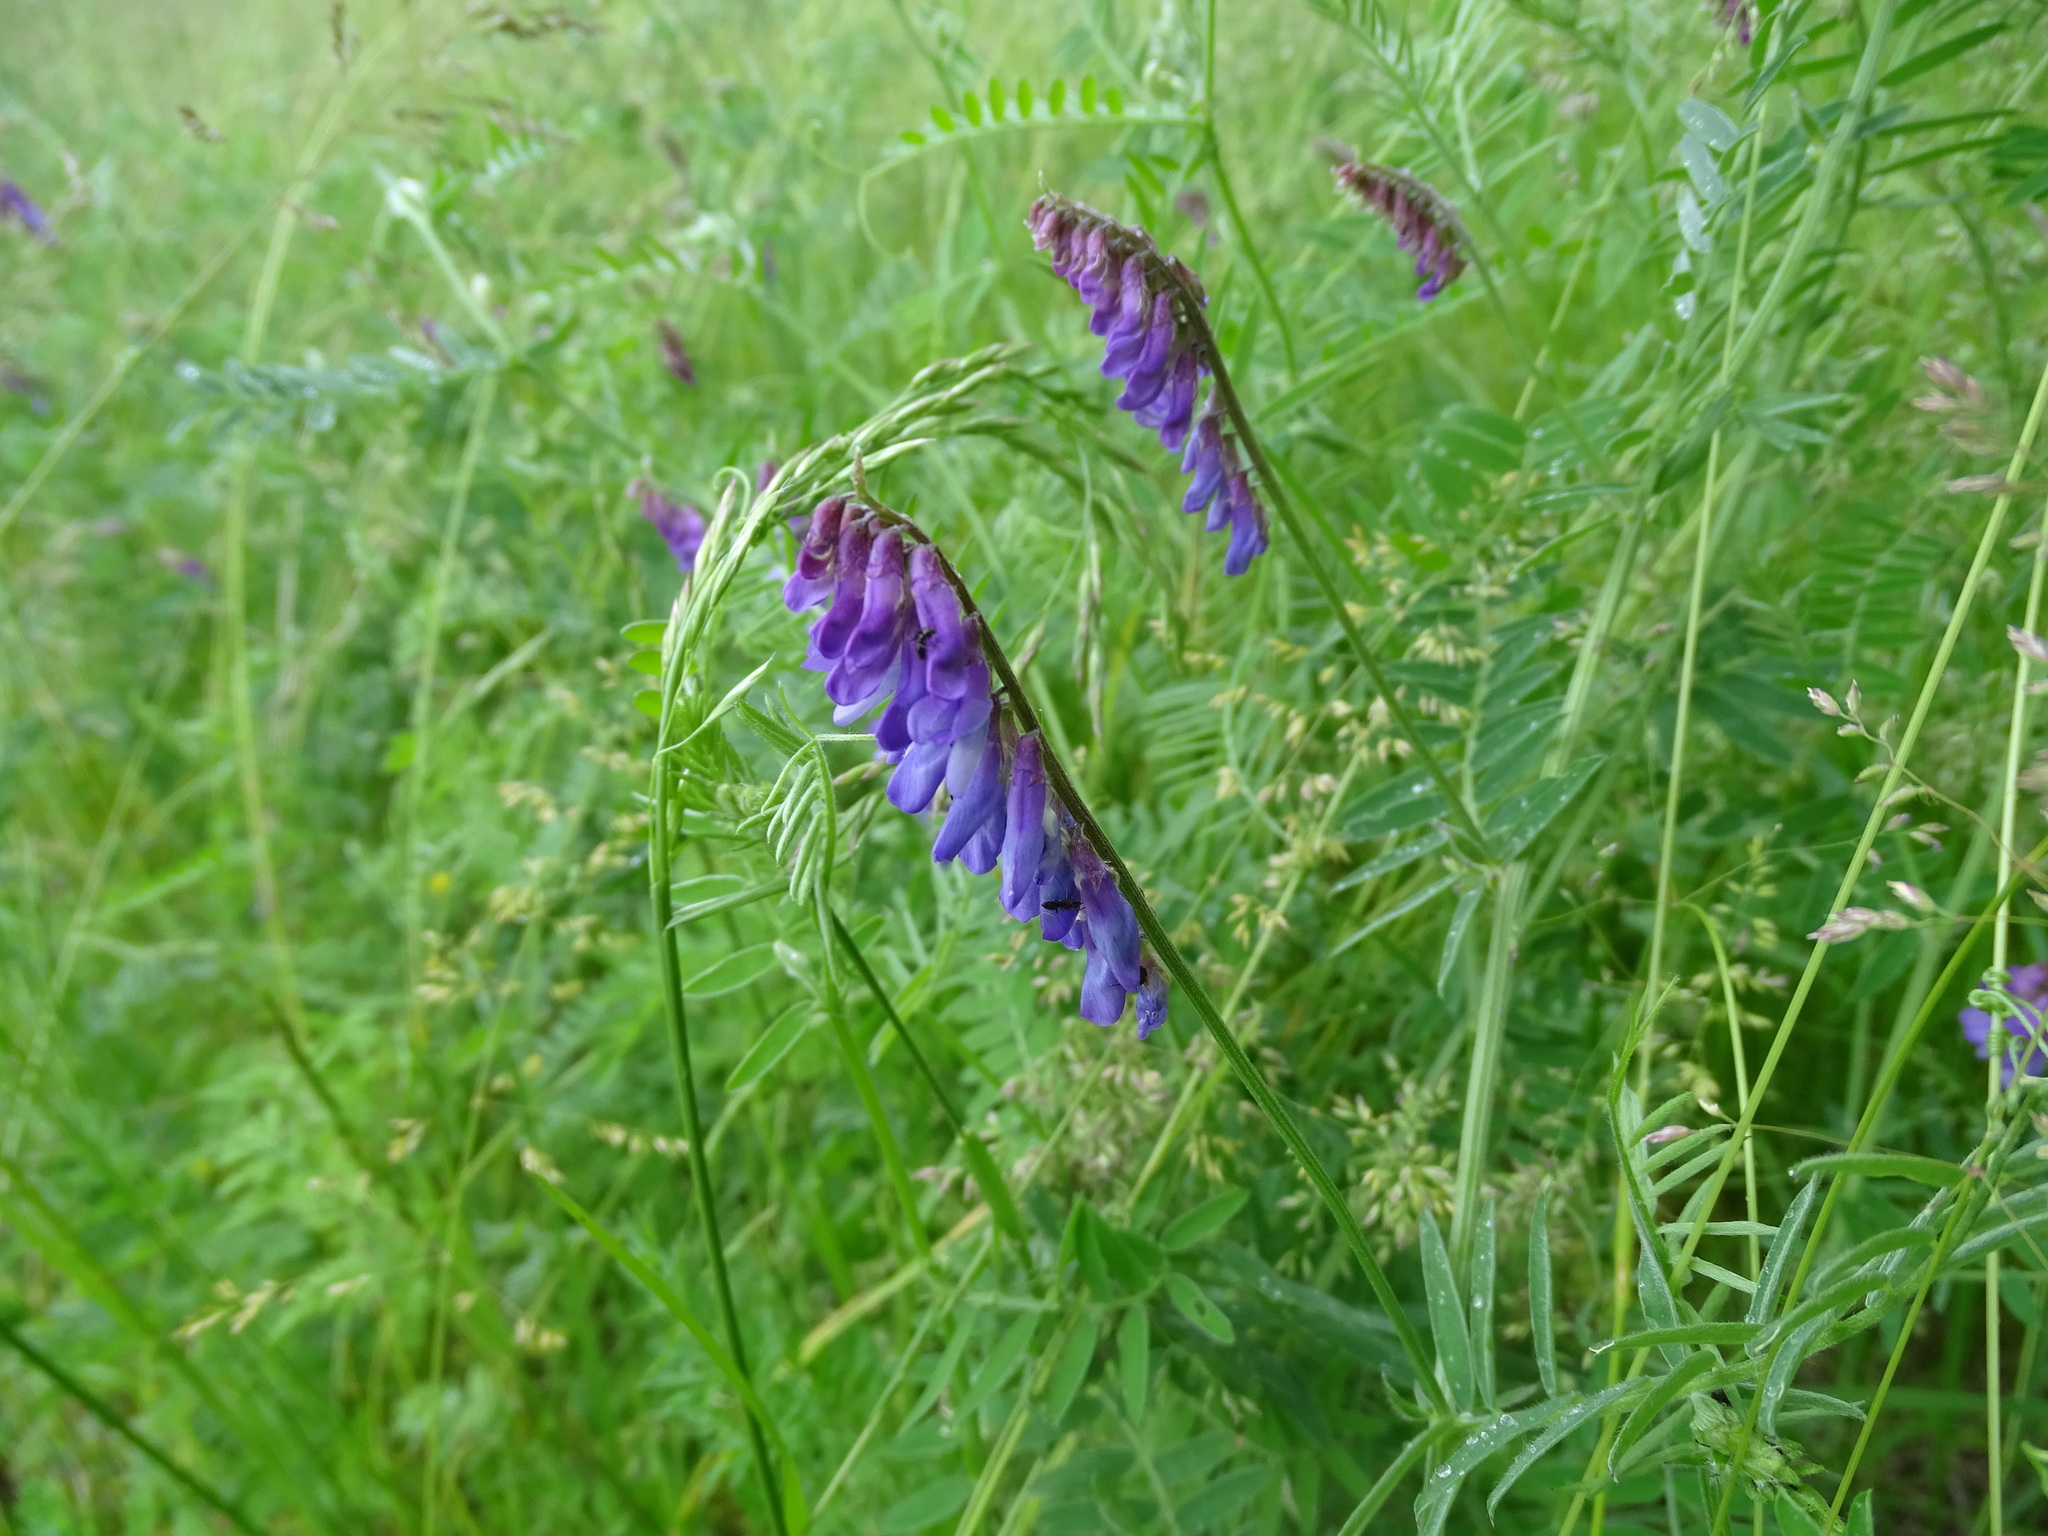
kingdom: Plantae
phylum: Tracheophyta
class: Magnoliopsida
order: Fabales
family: Fabaceae
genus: Vicia
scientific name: Vicia cracca
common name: Bird vetch
